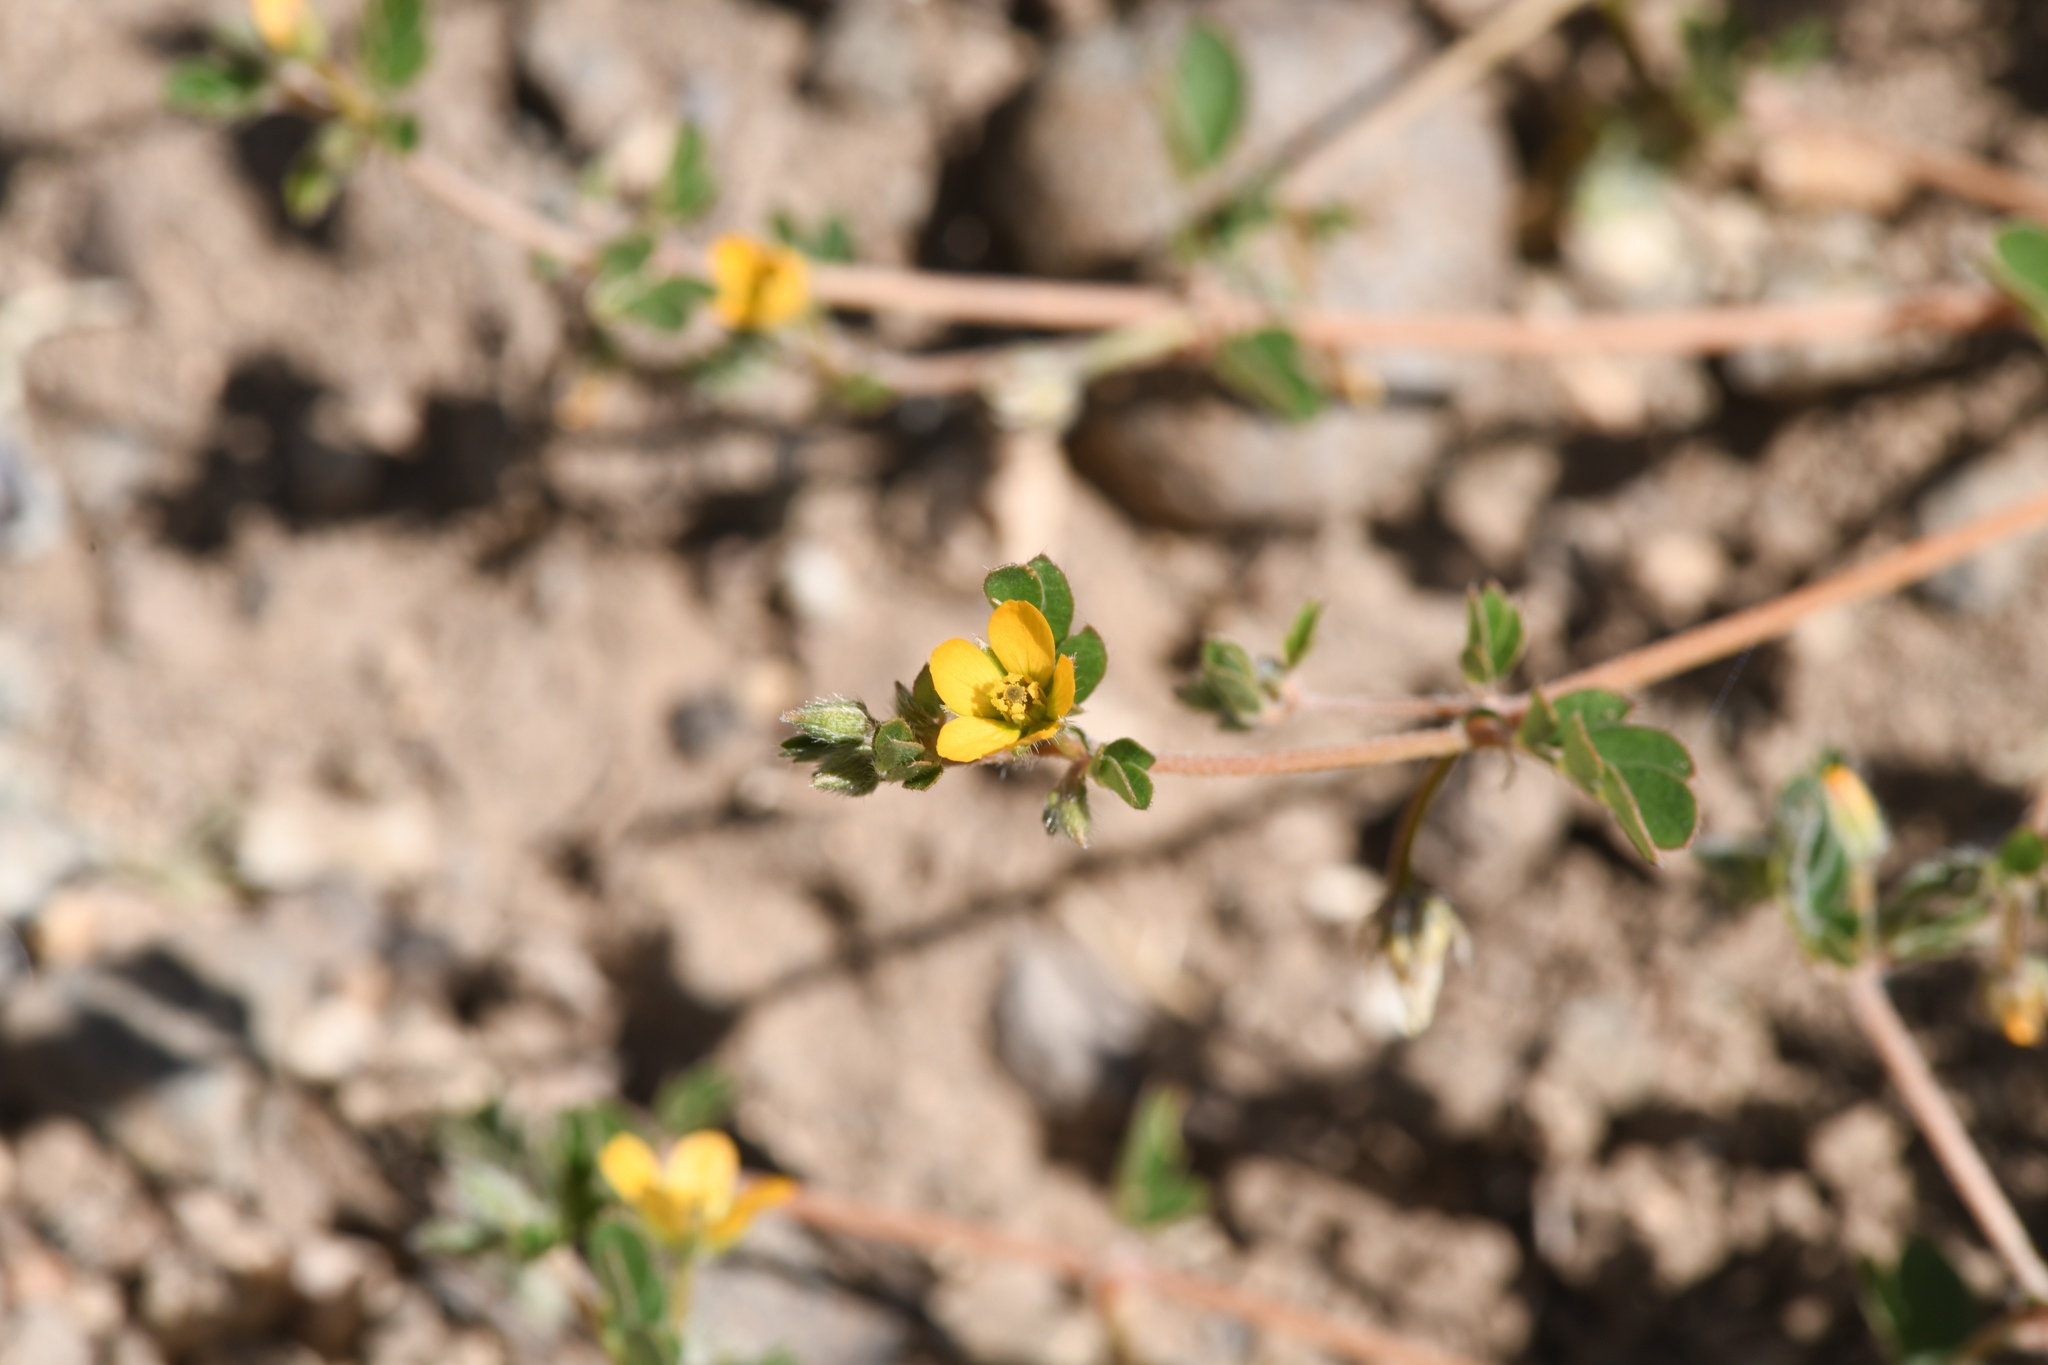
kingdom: Plantae
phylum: Tracheophyta
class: Magnoliopsida
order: Zygophyllales
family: Zygophyllaceae
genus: Kallstroemia
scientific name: Kallstroemia californica
